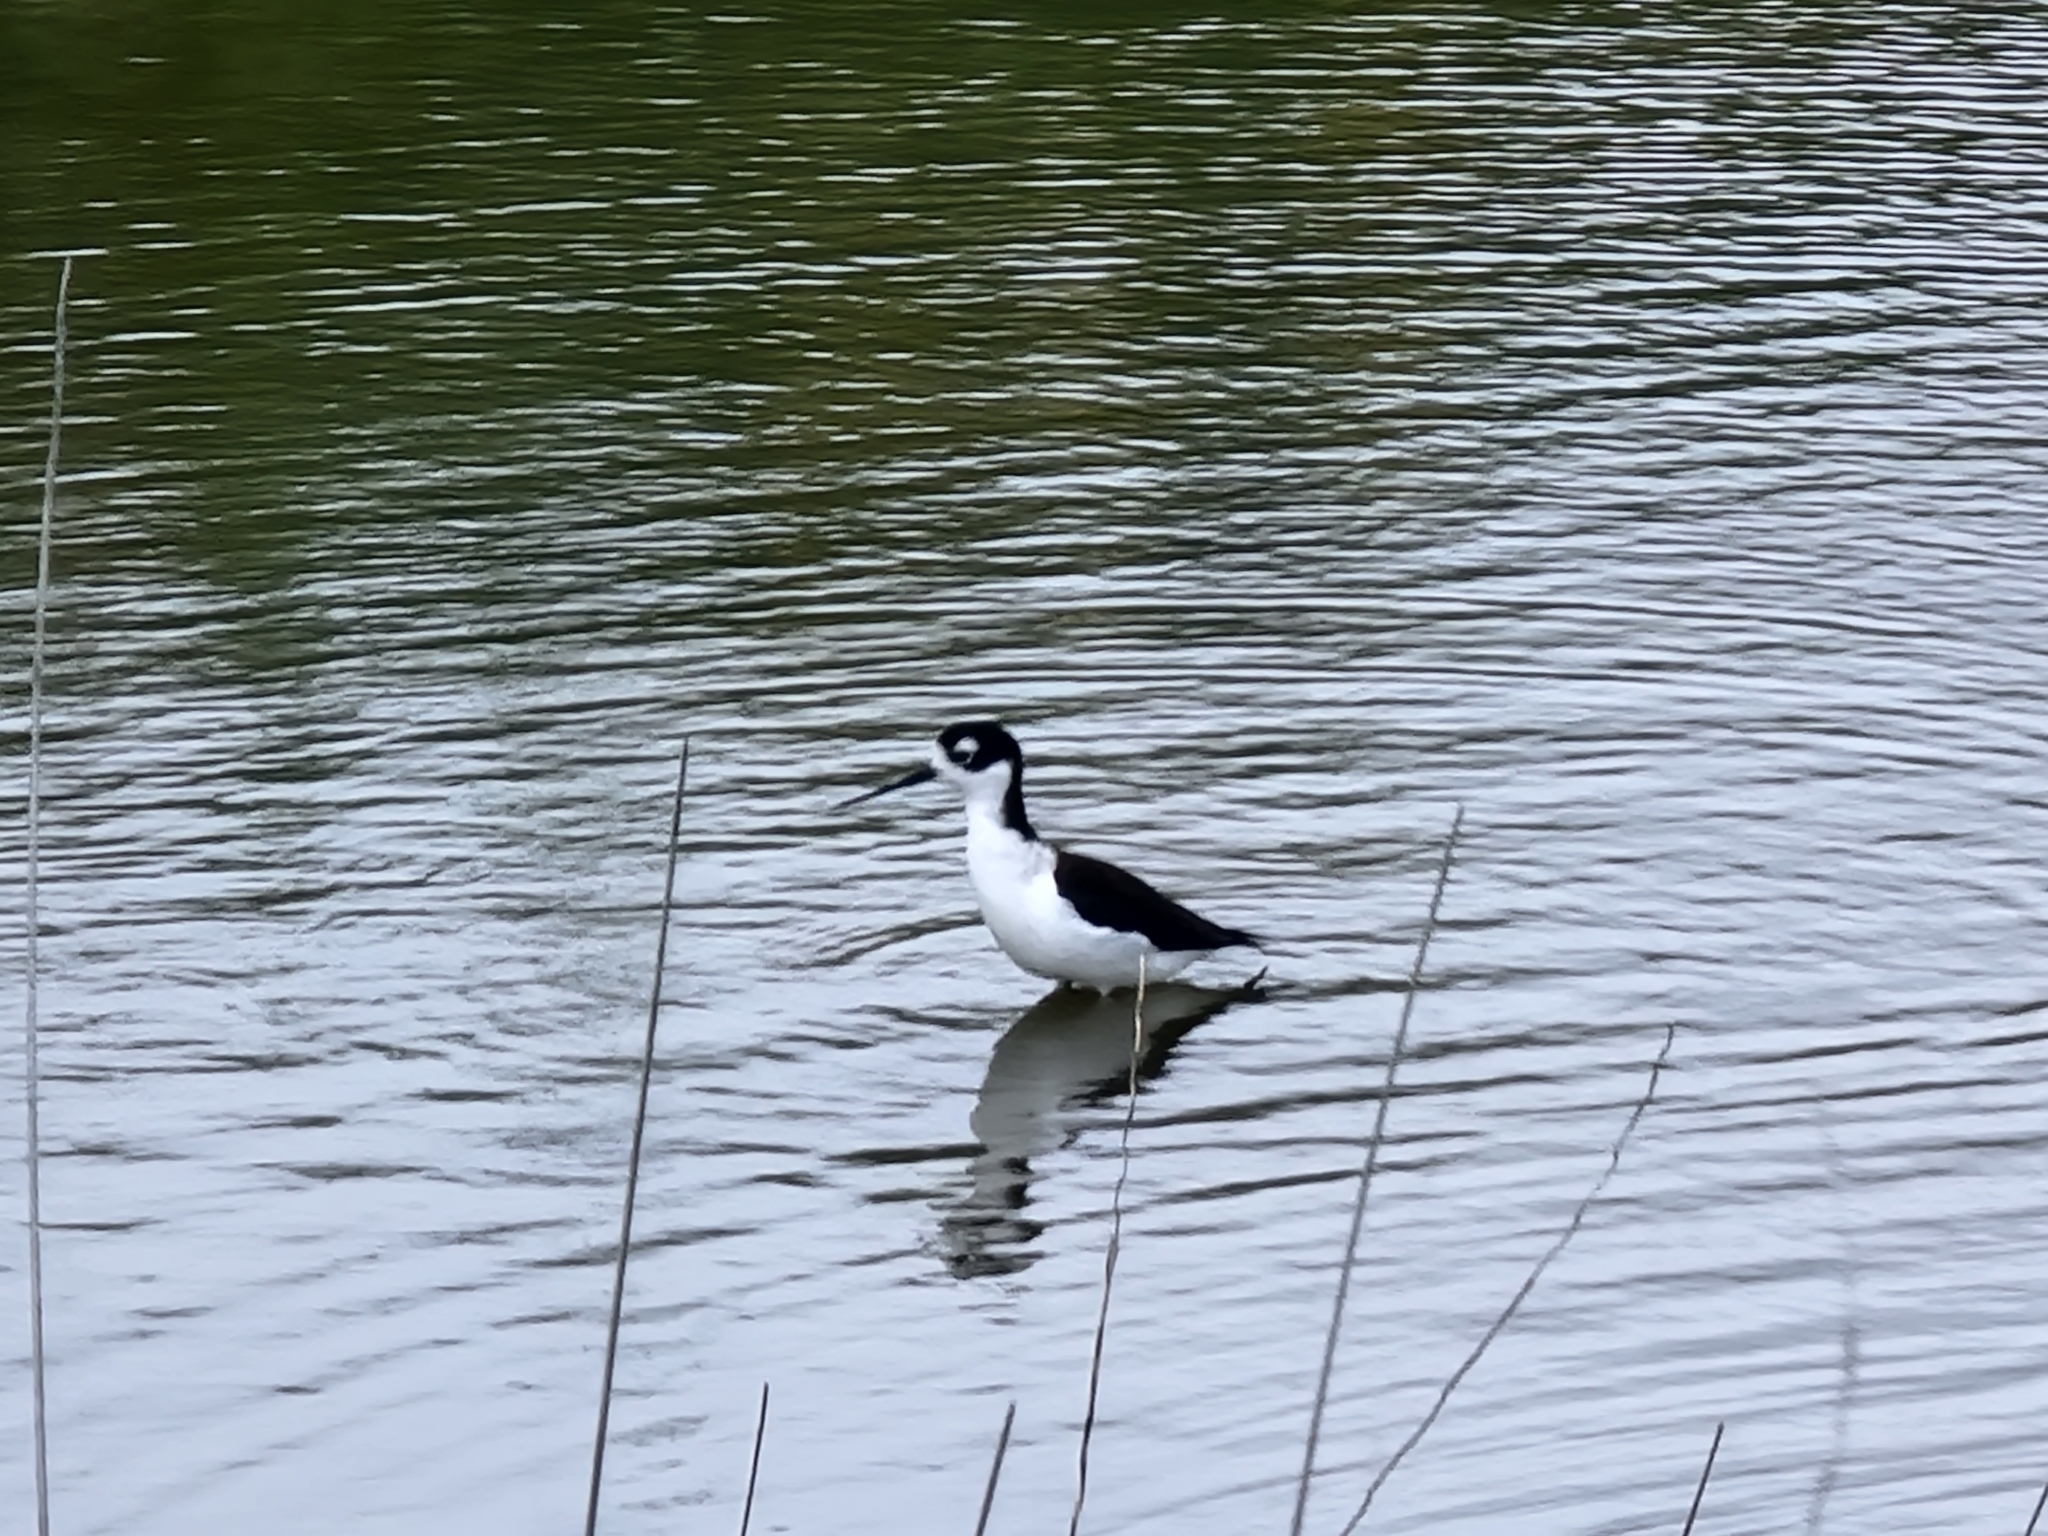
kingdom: Animalia
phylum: Chordata
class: Aves
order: Charadriiformes
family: Recurvirostridae
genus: Himantopus
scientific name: Himantopus mexicanus
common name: Black-necked stilt
